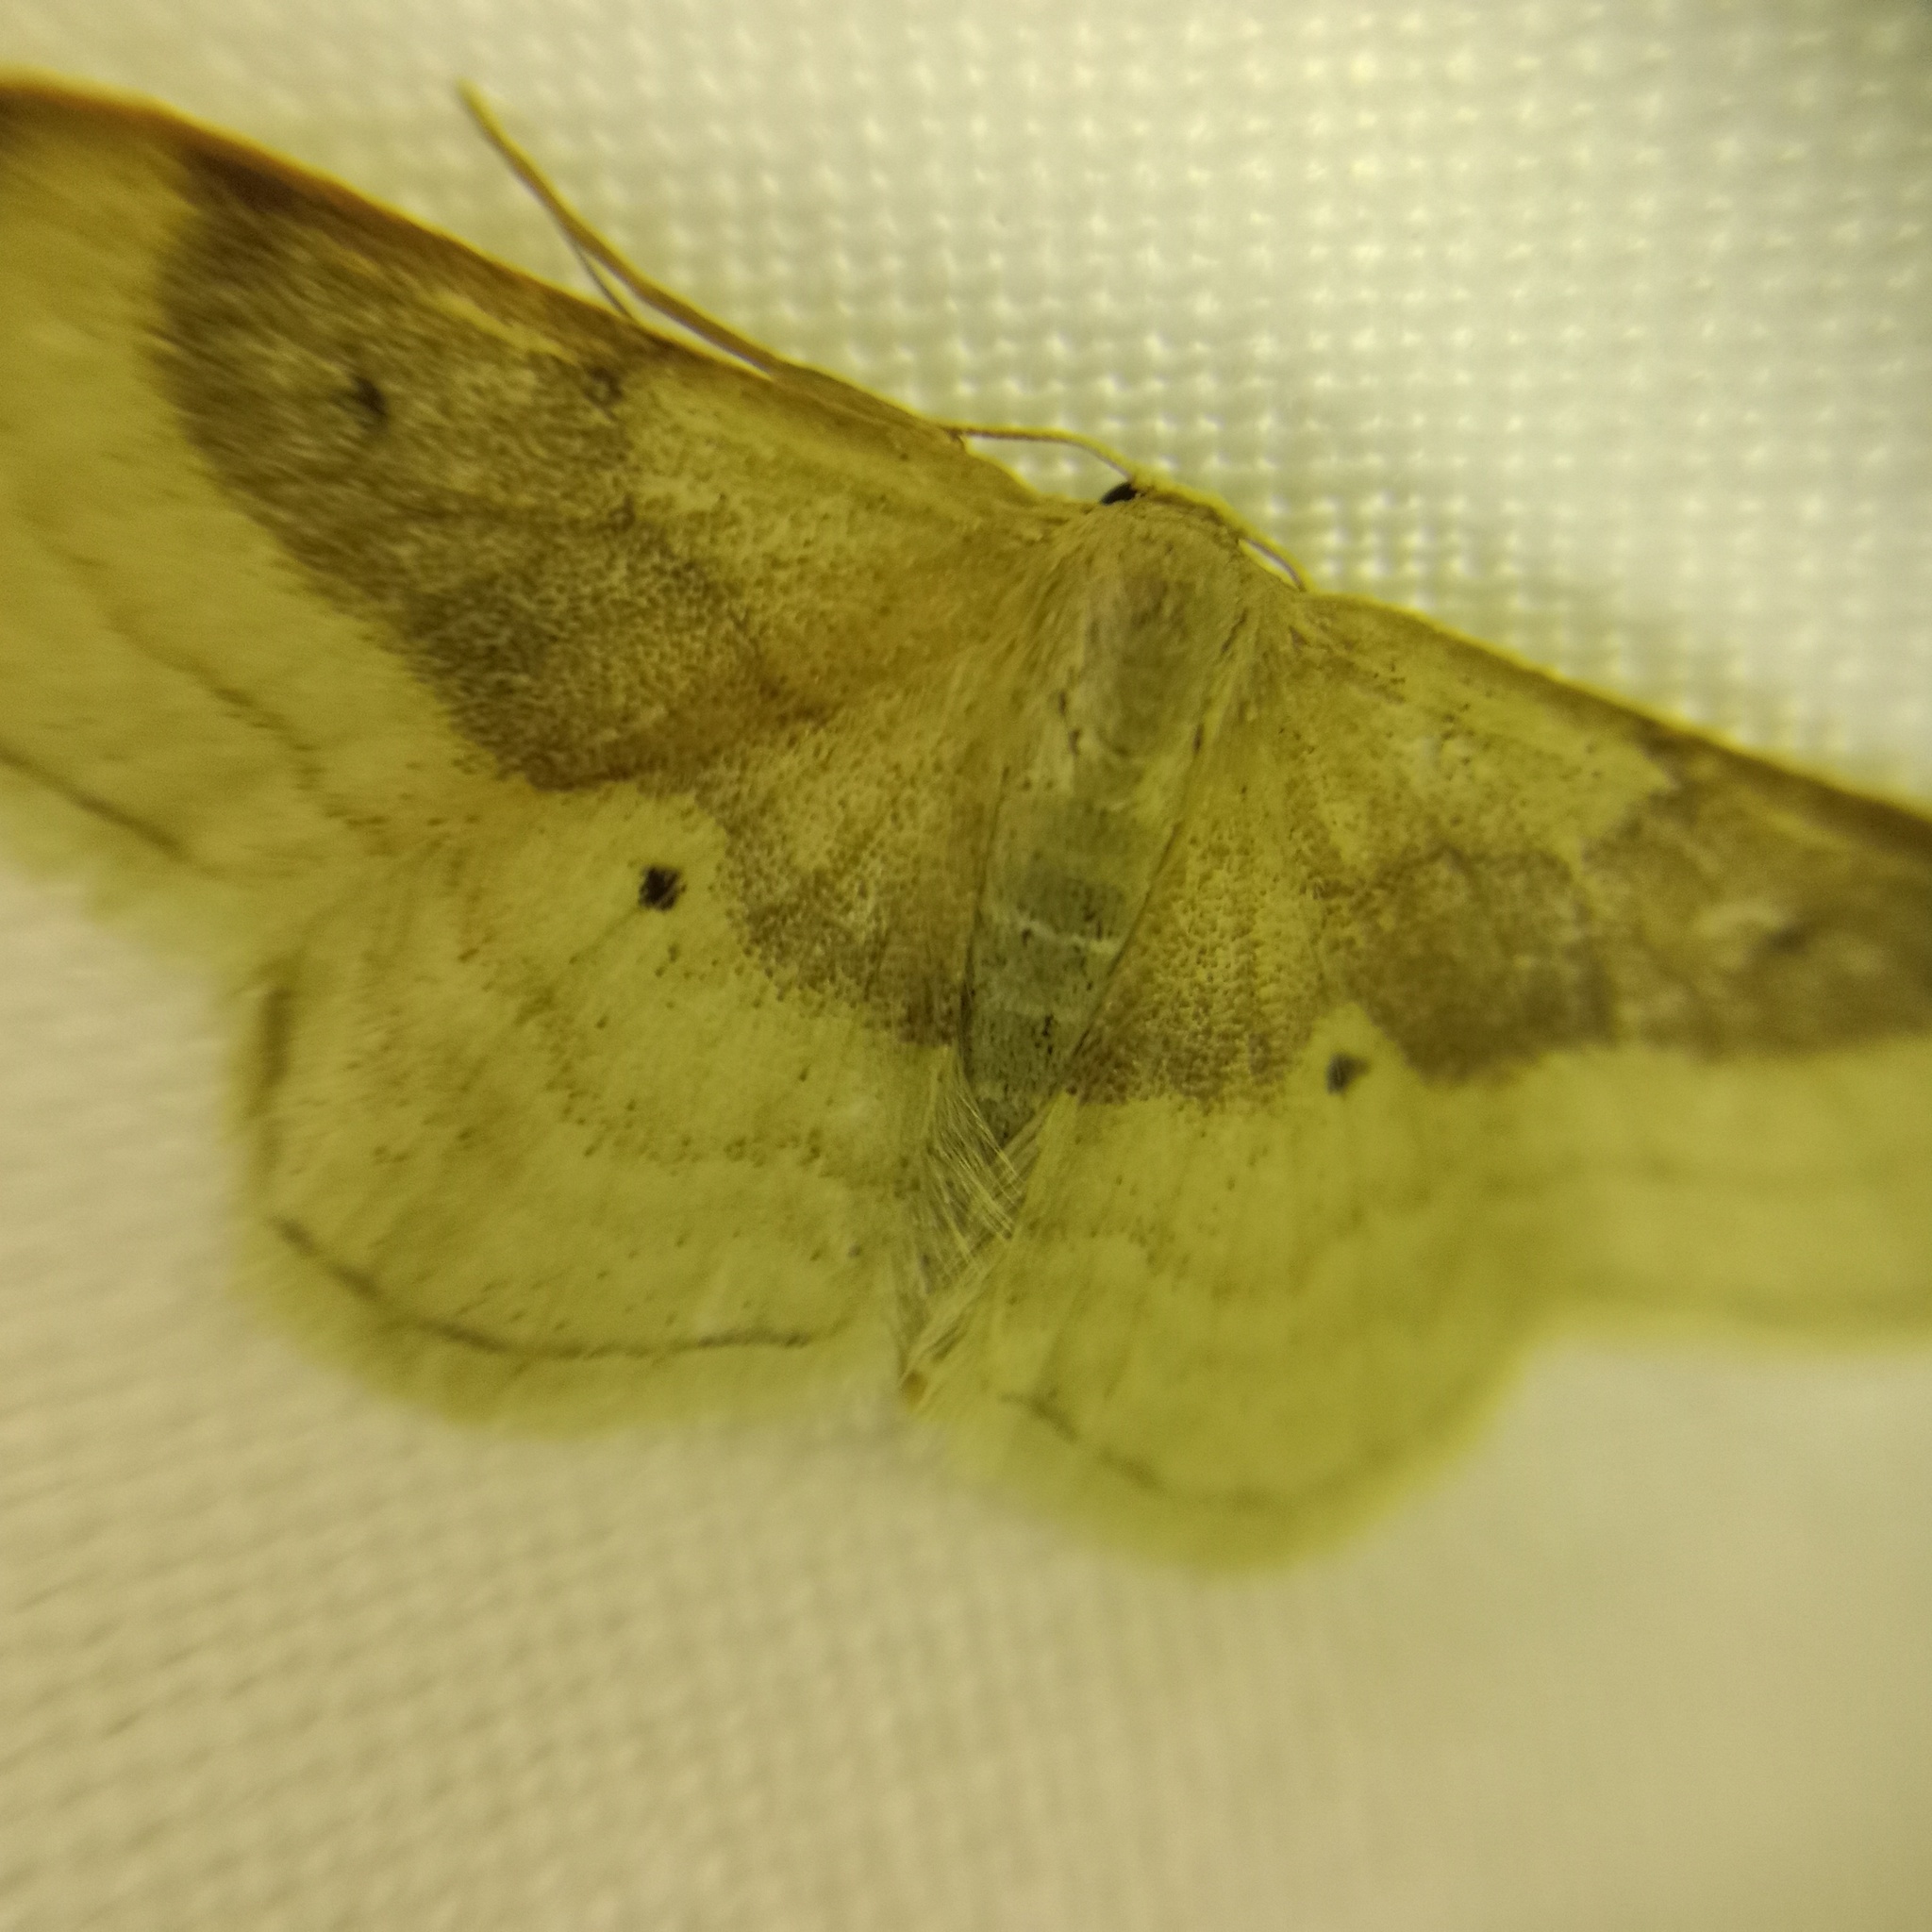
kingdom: Animalia
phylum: Arthropoda
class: Insecta
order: Lepidoptera
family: Geometridae
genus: Idaea
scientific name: Idaea degeneraria
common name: Portland ribbon wave
